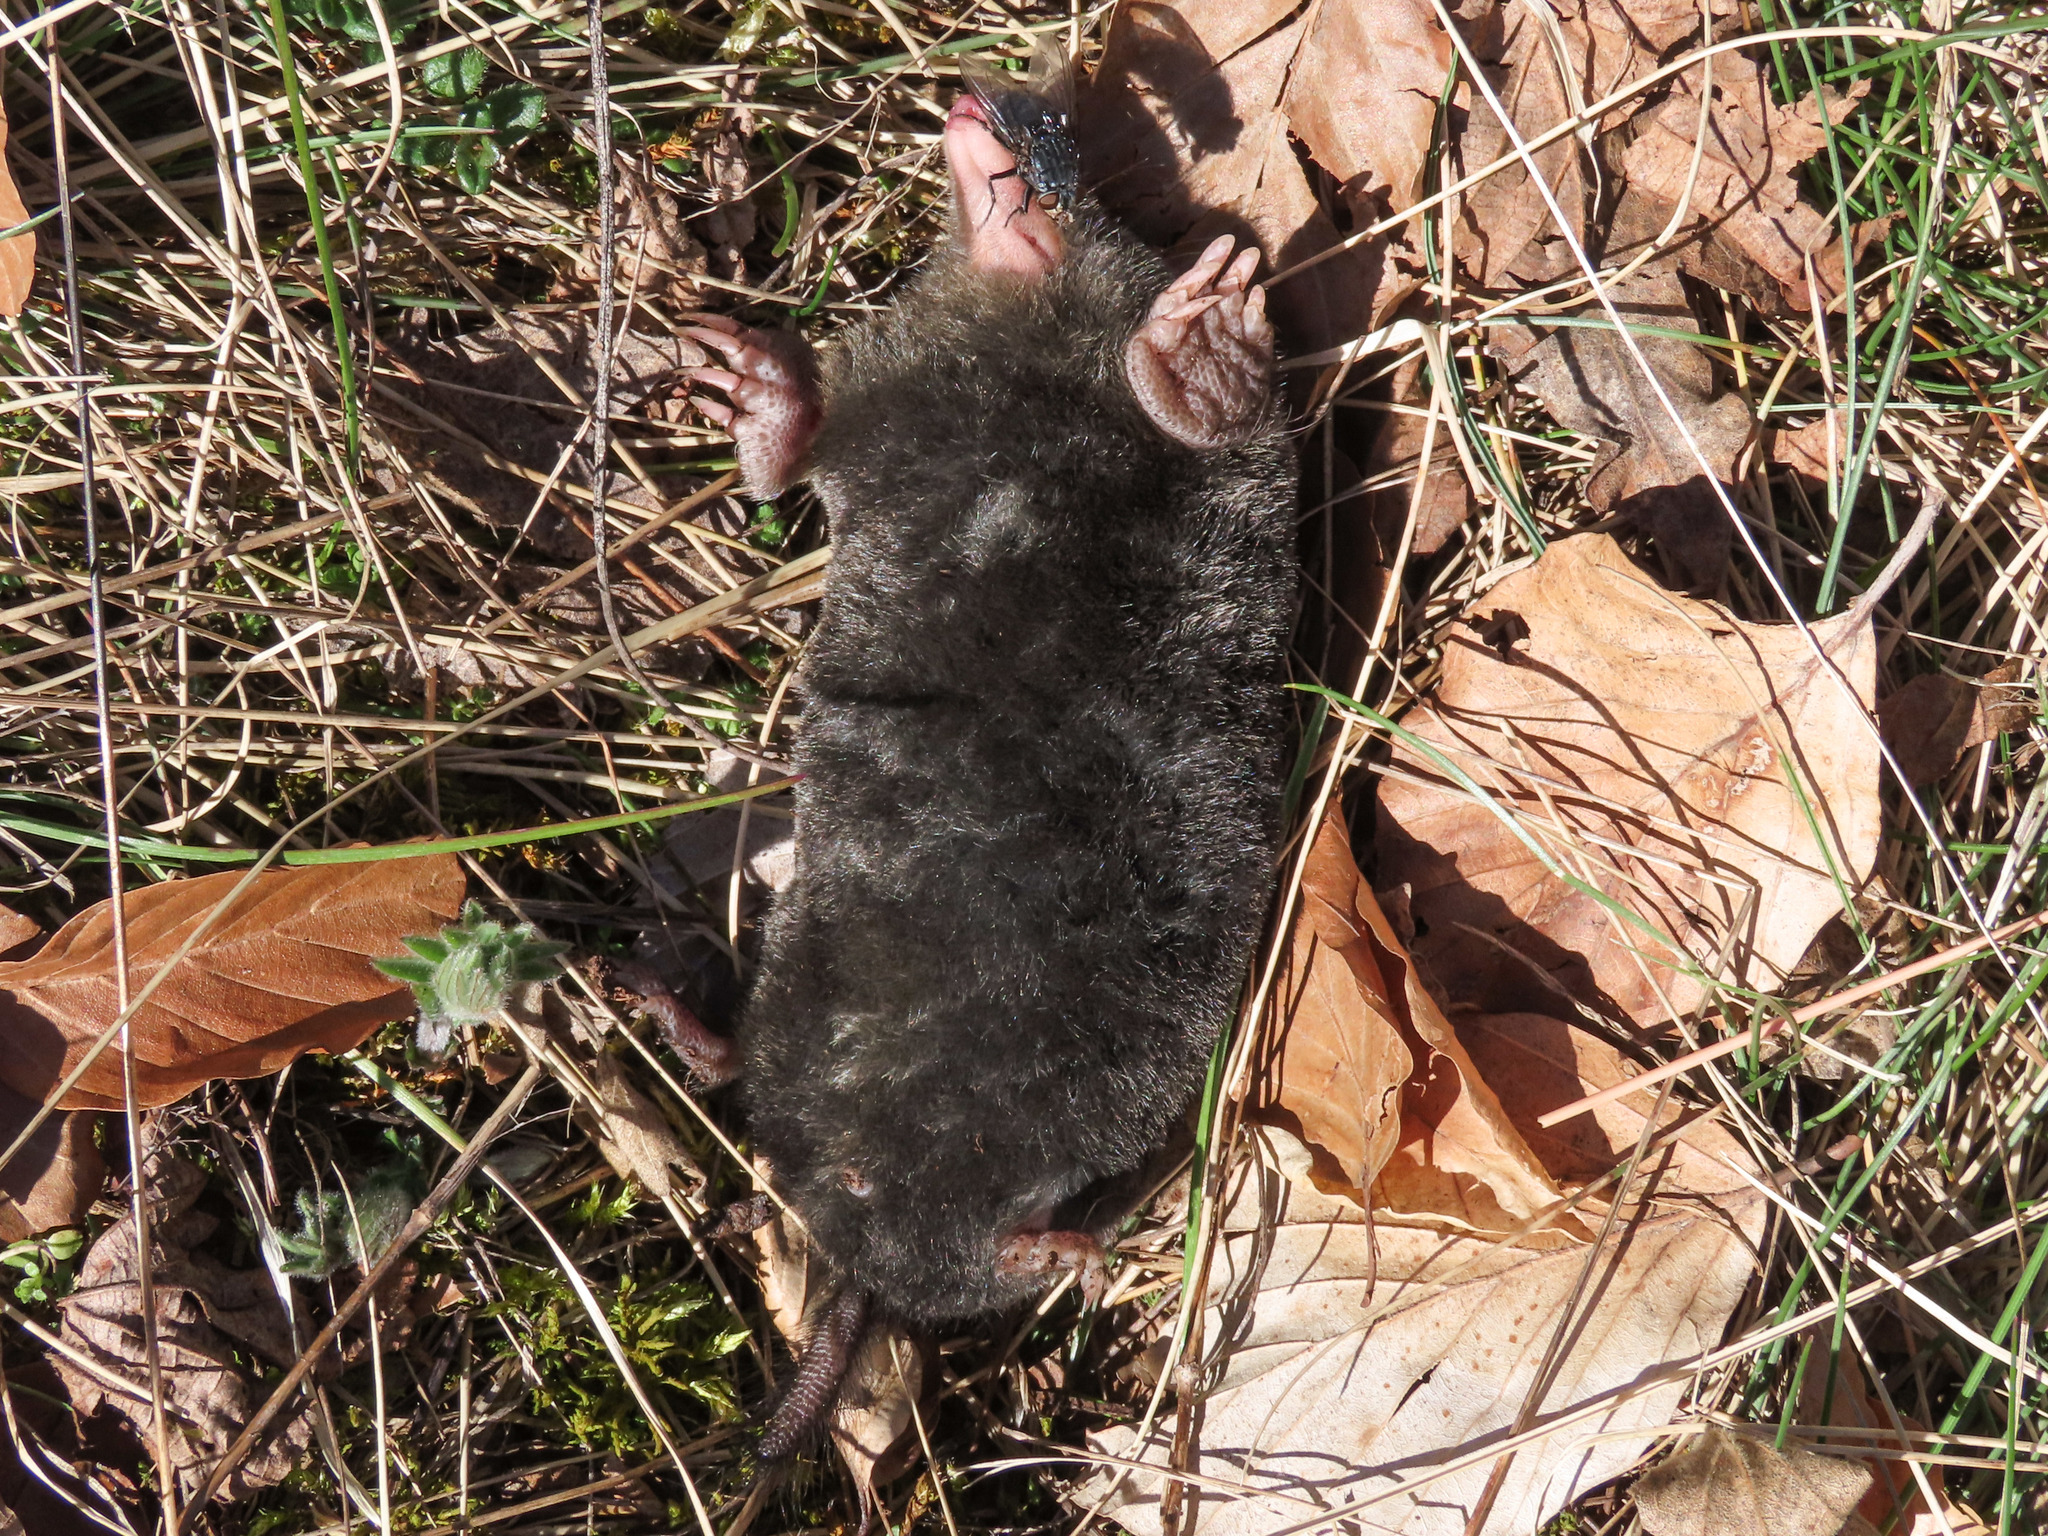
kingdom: Animalia
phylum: Chordata
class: Mammalia
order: Soricomorpha
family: Talpidae
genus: Talpa
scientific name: Talpa
